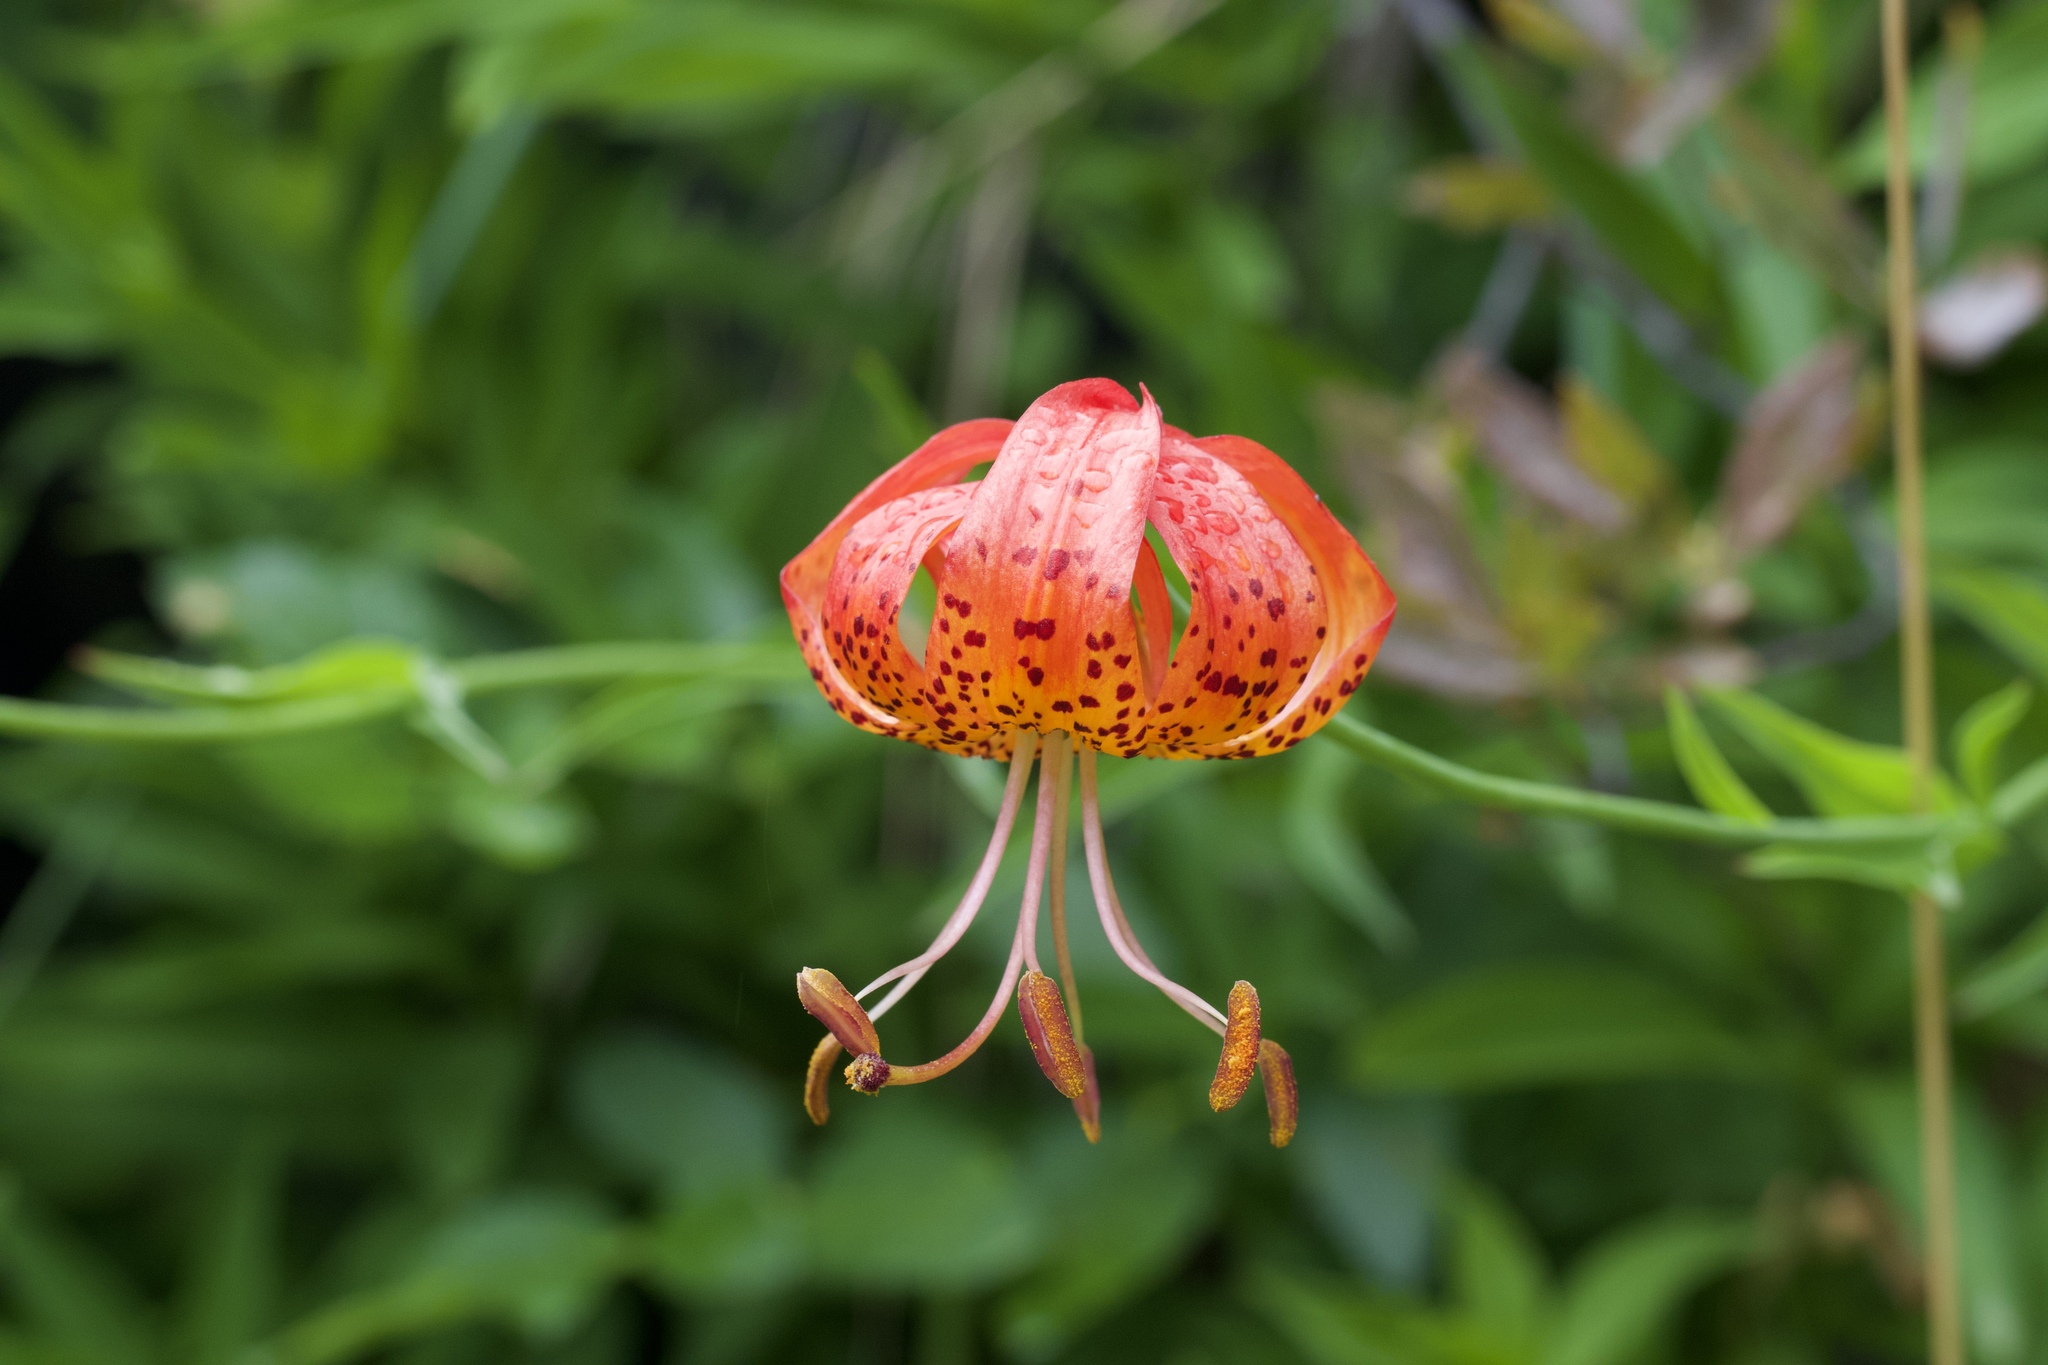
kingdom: Plantae
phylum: Tracheophyta
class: Liliopsida
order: Liliales
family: Liliaceae
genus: Lilium
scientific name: Lilium pardalinum
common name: Panther lily
